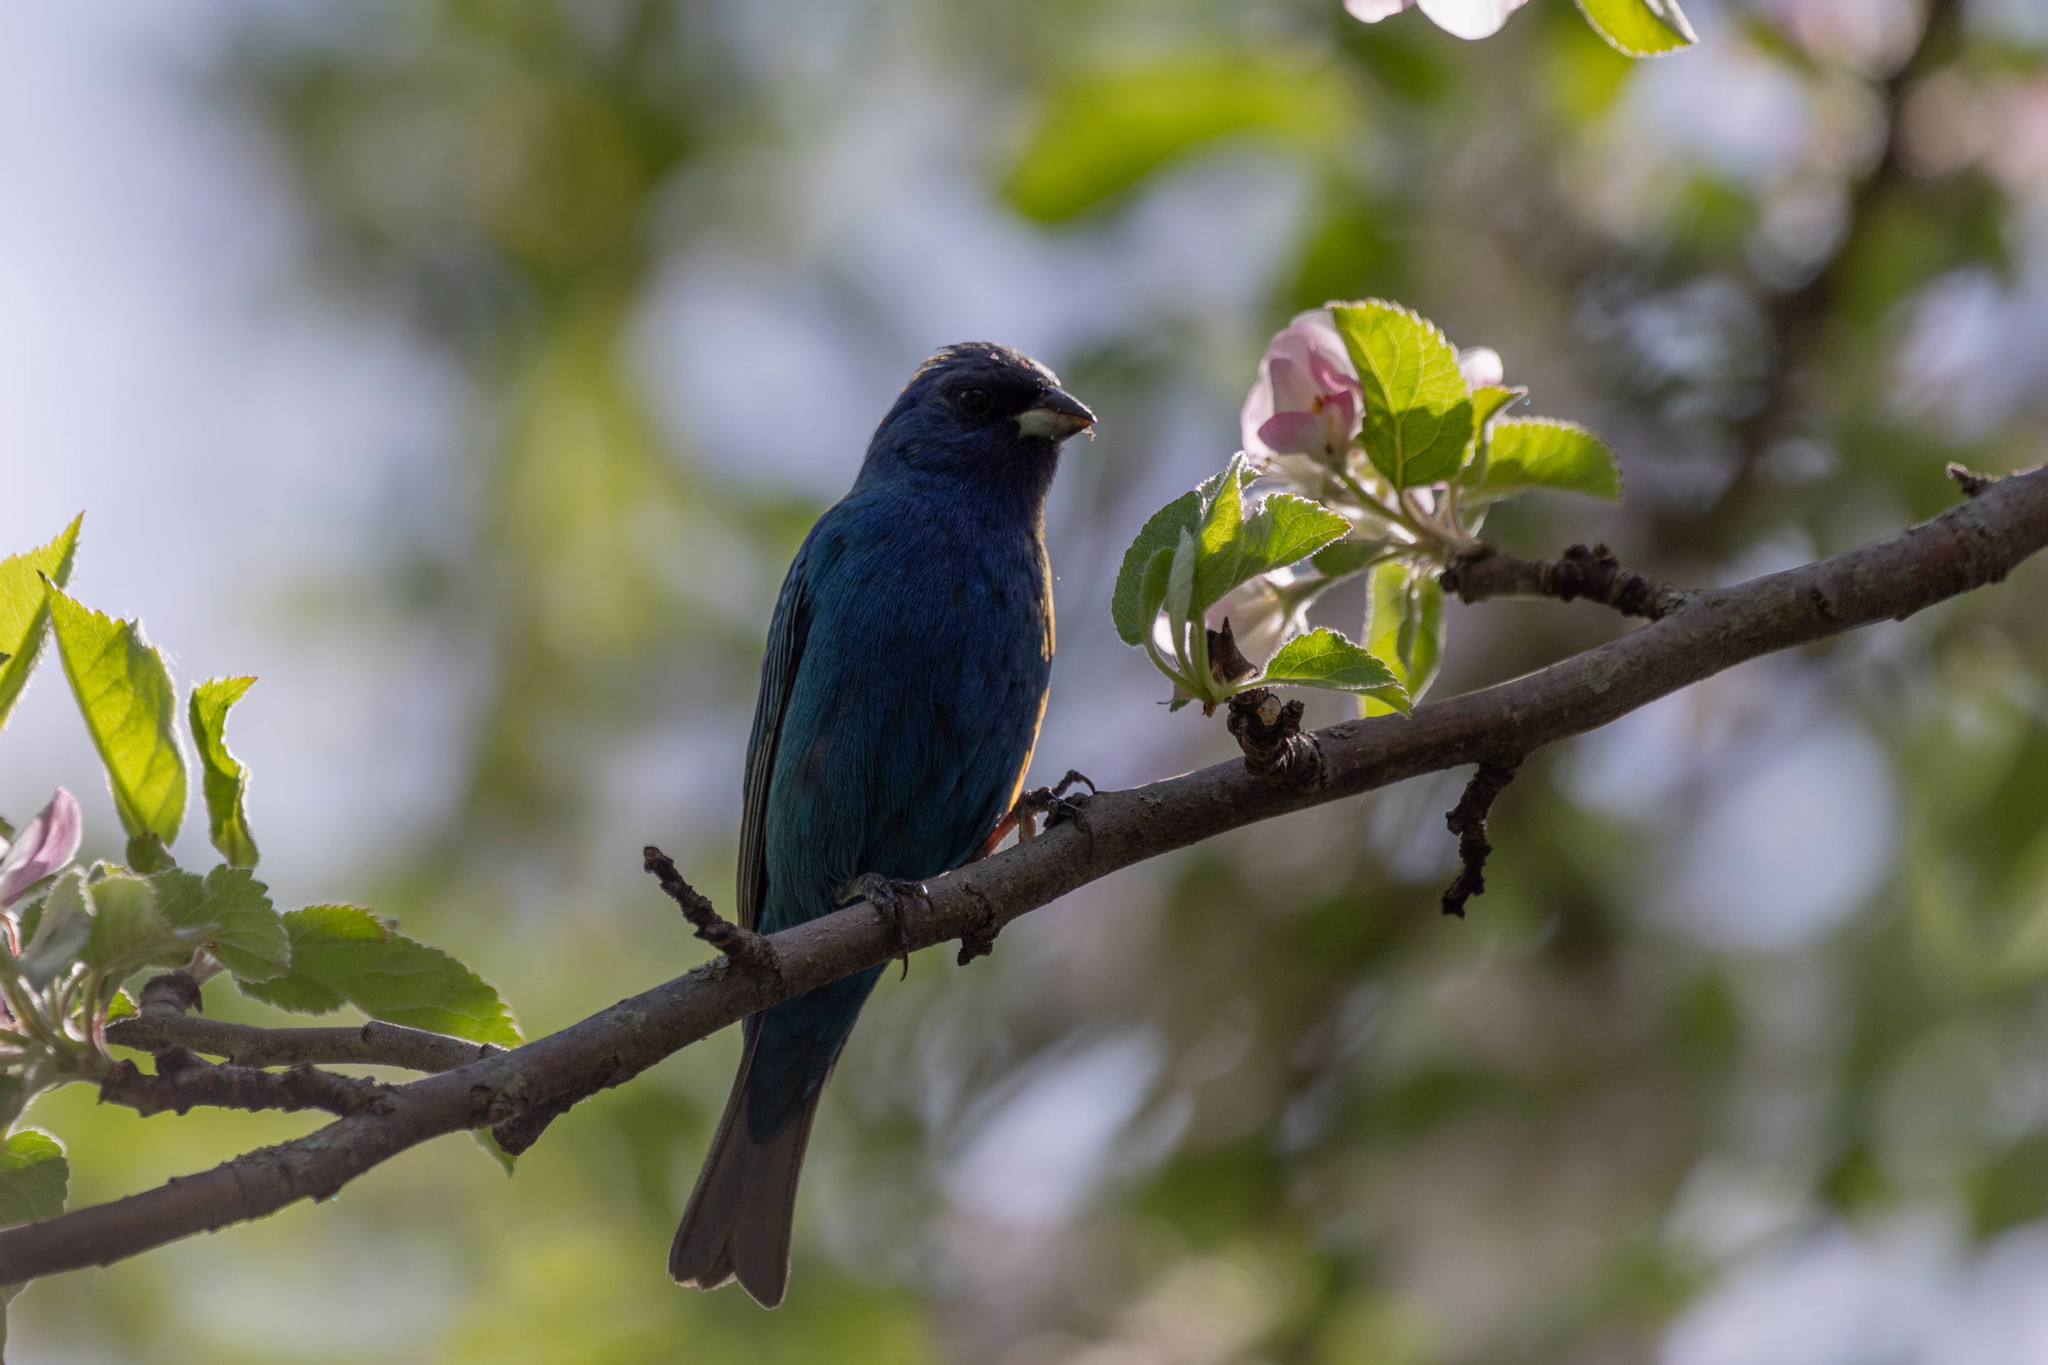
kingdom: Animalia
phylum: Chordata
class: Aves
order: Passeriformes
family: Cardinalidae
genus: Passerina
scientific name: Passerina cyanea
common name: Indigo bunting
